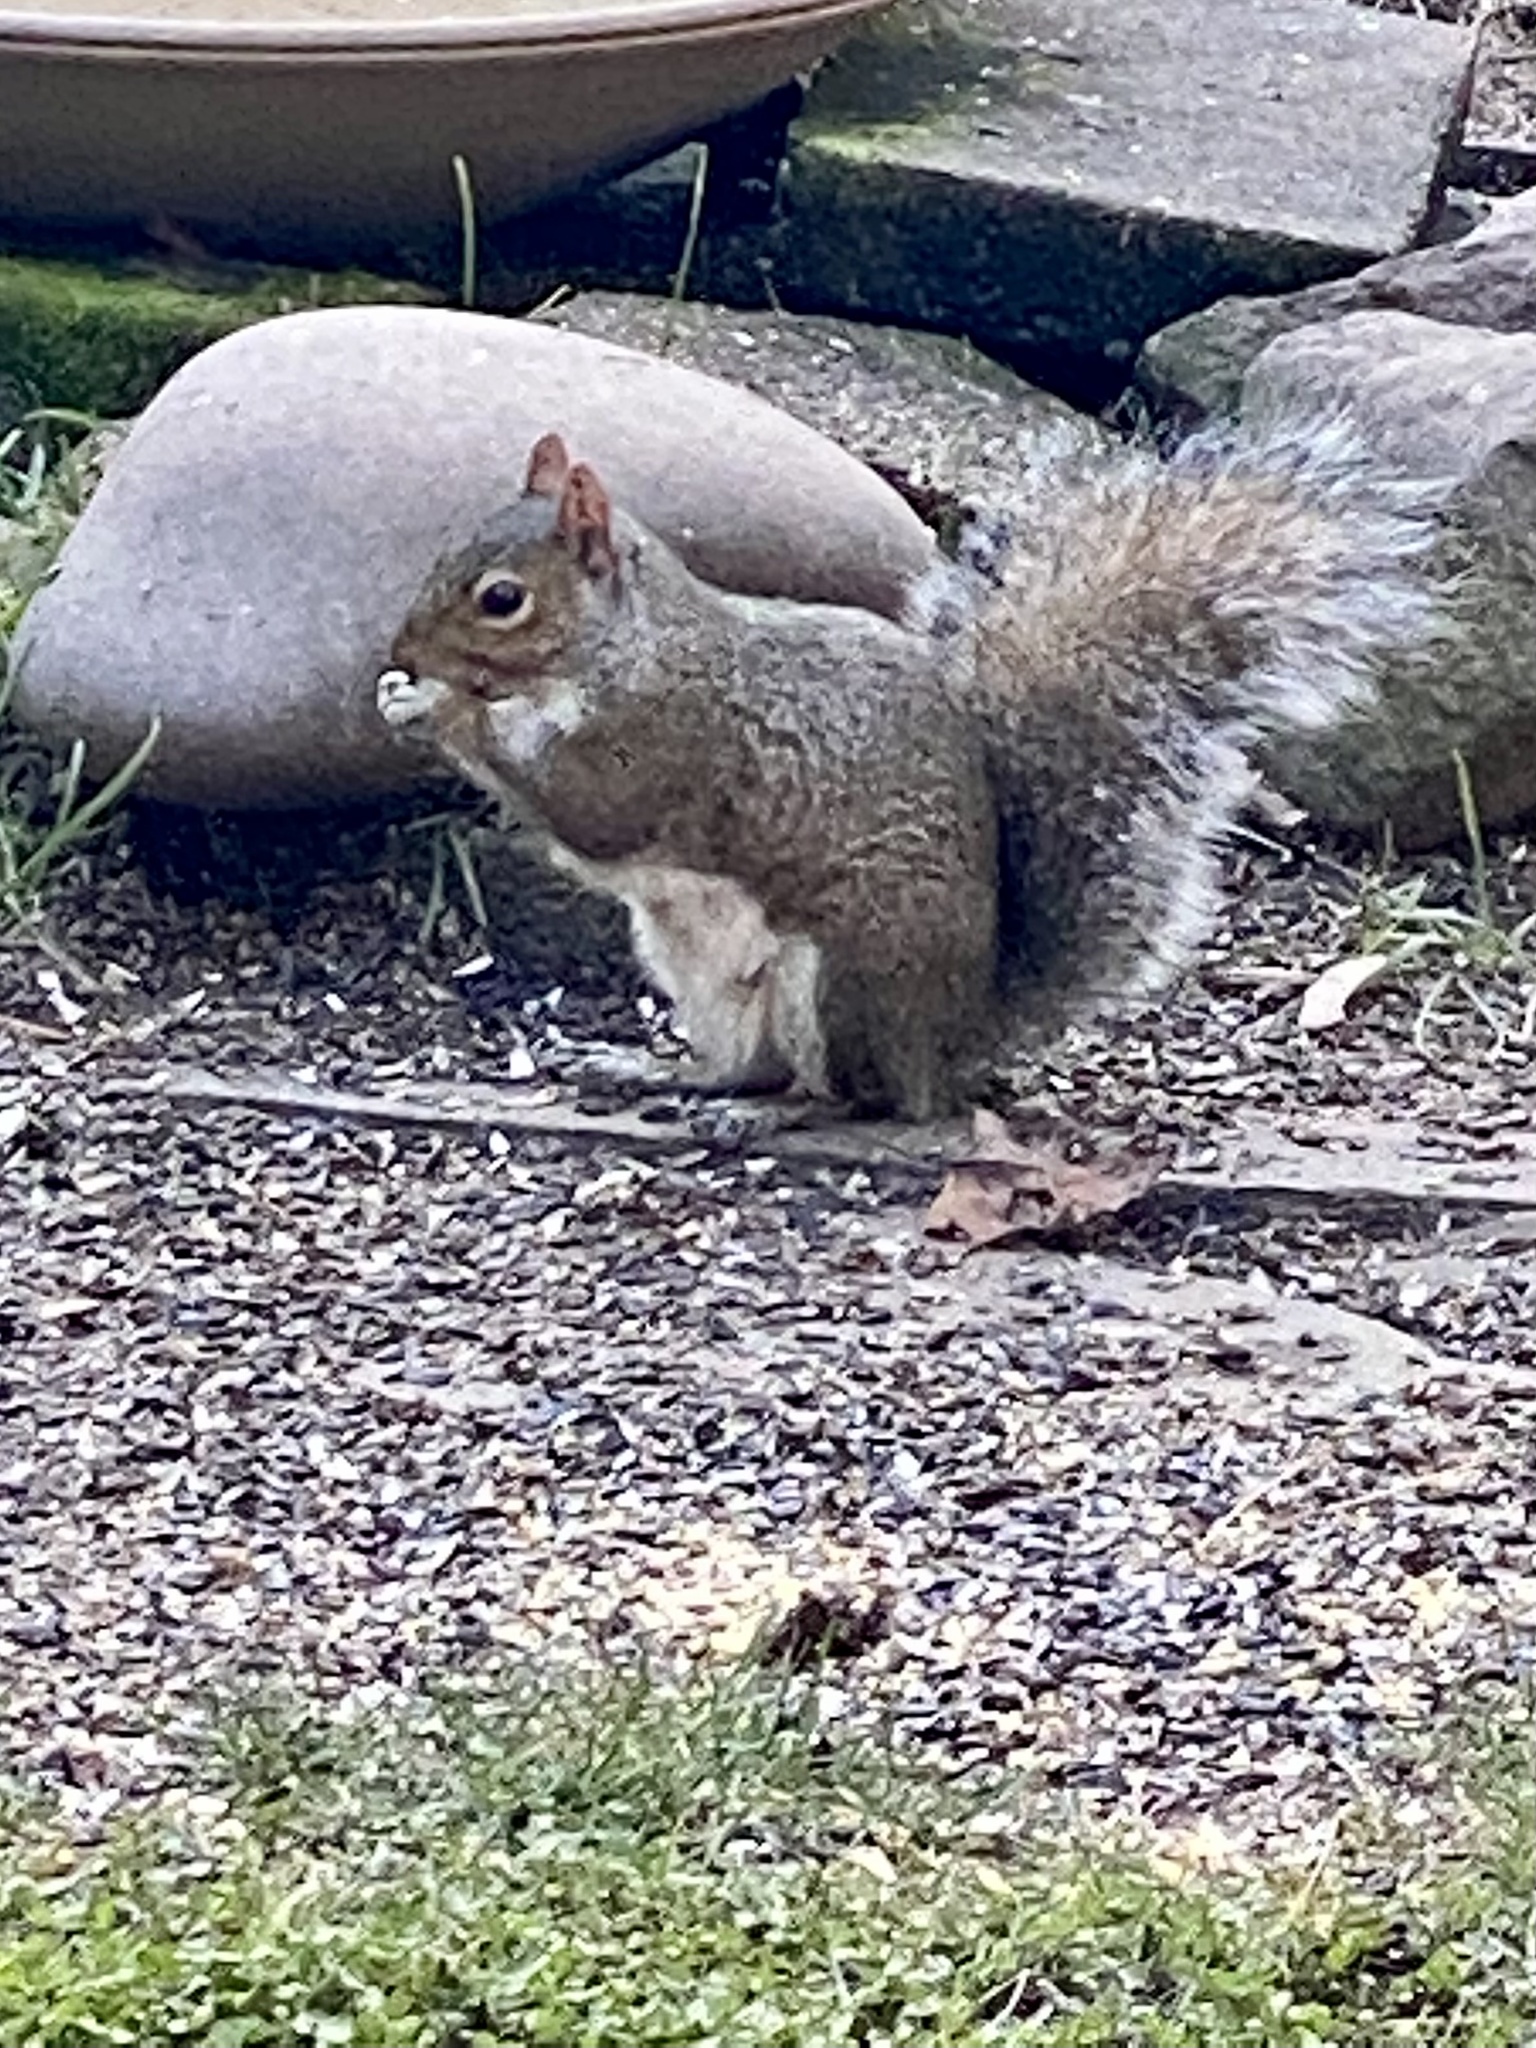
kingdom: Animalia
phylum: Chordata
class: Mammalia
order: Rodentia
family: Sciuridae
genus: Sciurus
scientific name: Sciurus carolinensis
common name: Eastern gray squirrel
